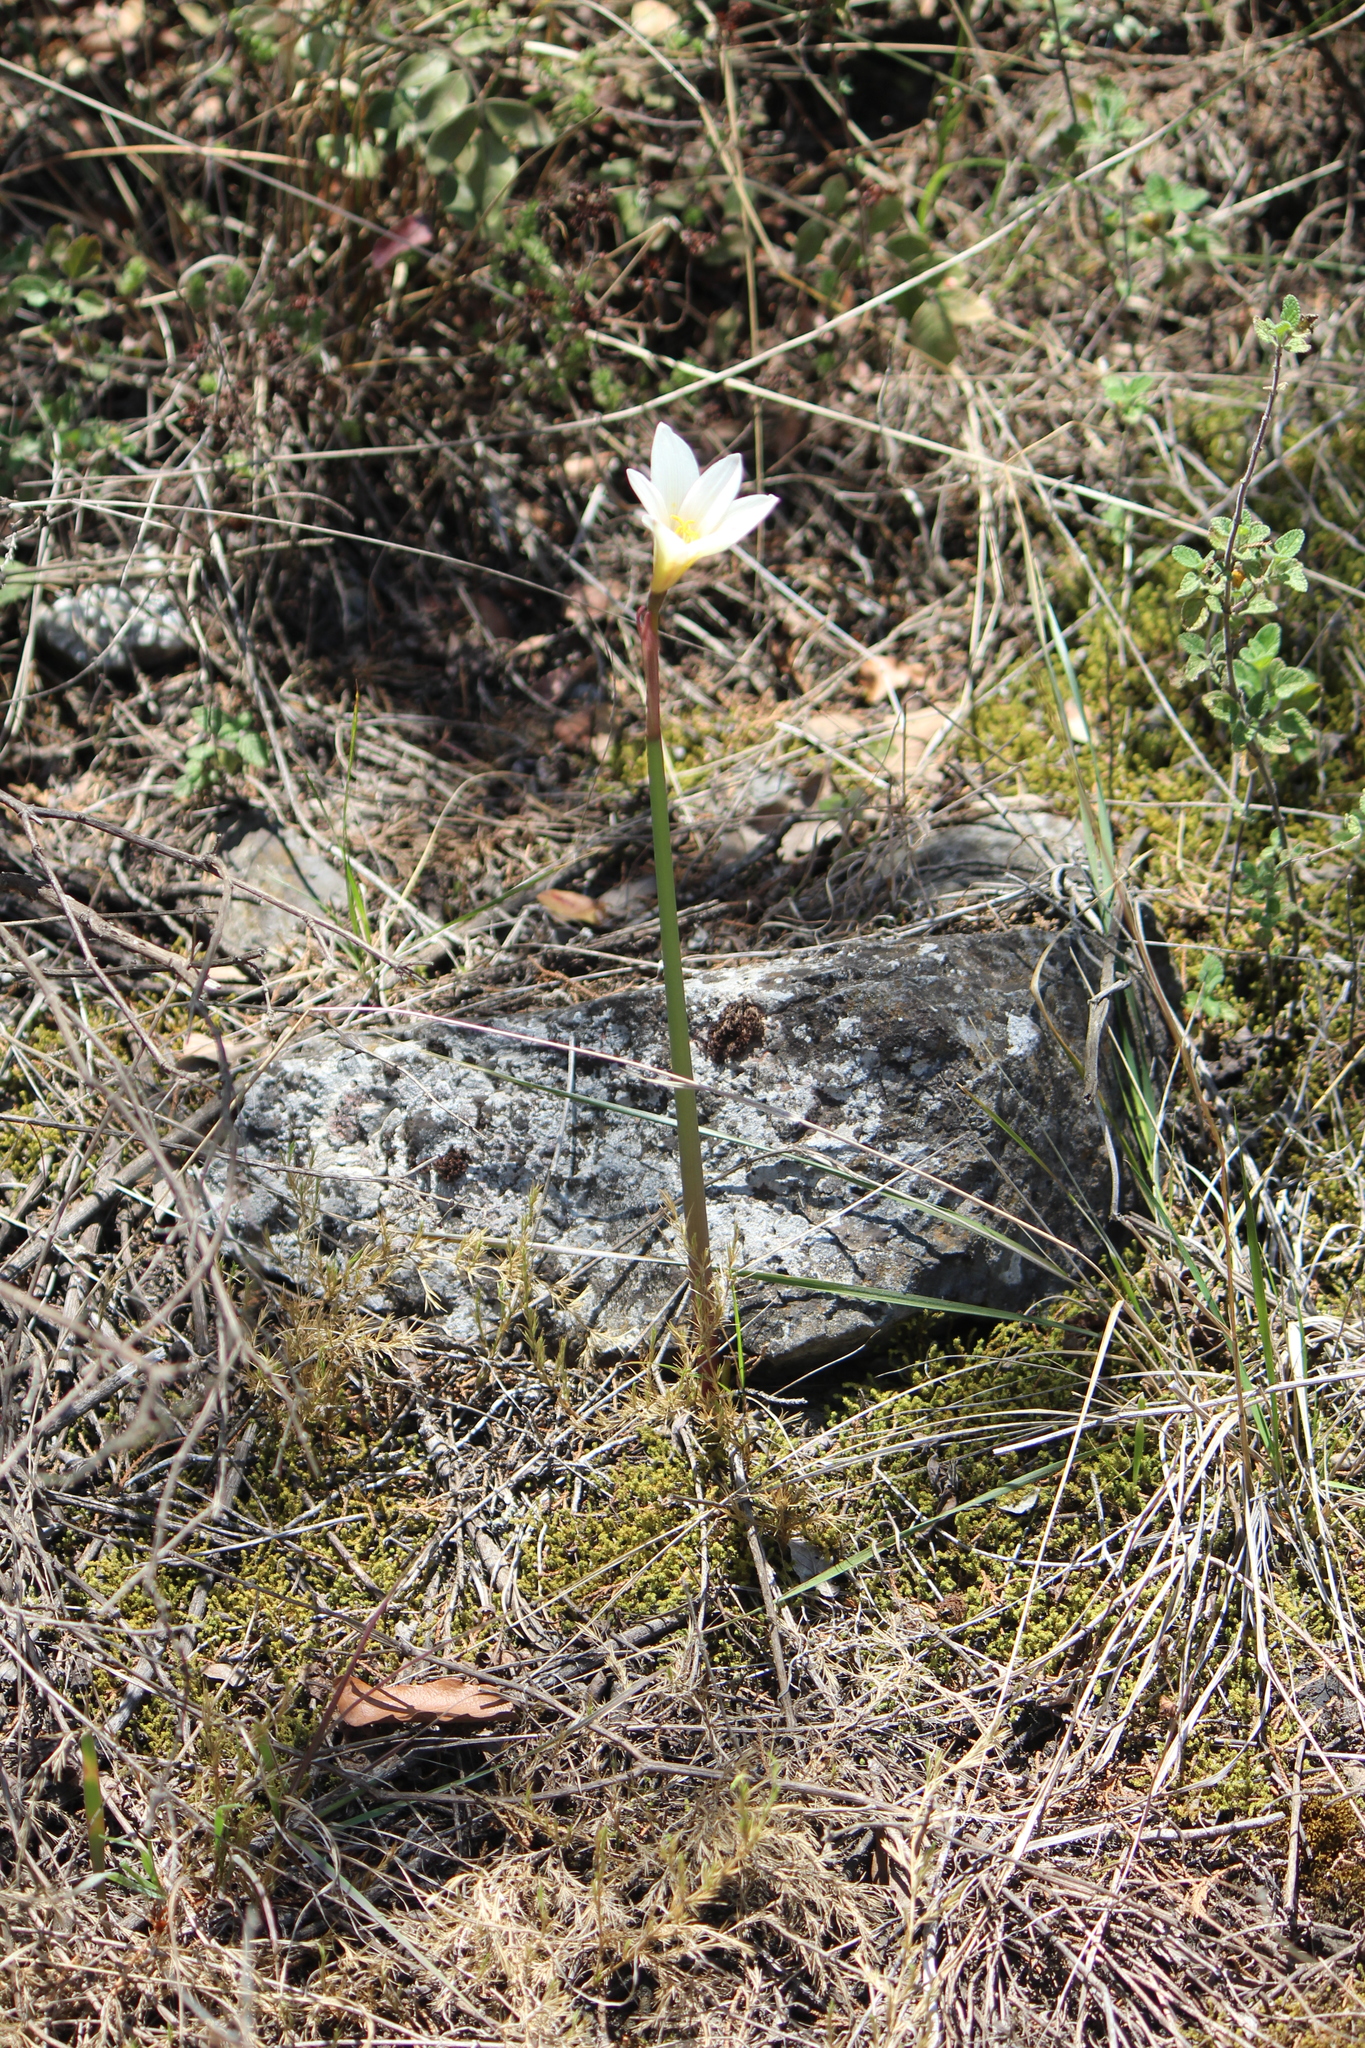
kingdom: Plantae
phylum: Tracheophyta
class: Liliopsida
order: Asparagales
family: Amaryllidaceae
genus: Zephyranthes
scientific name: Zephyranthes candida
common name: Autumn zephyrlily
